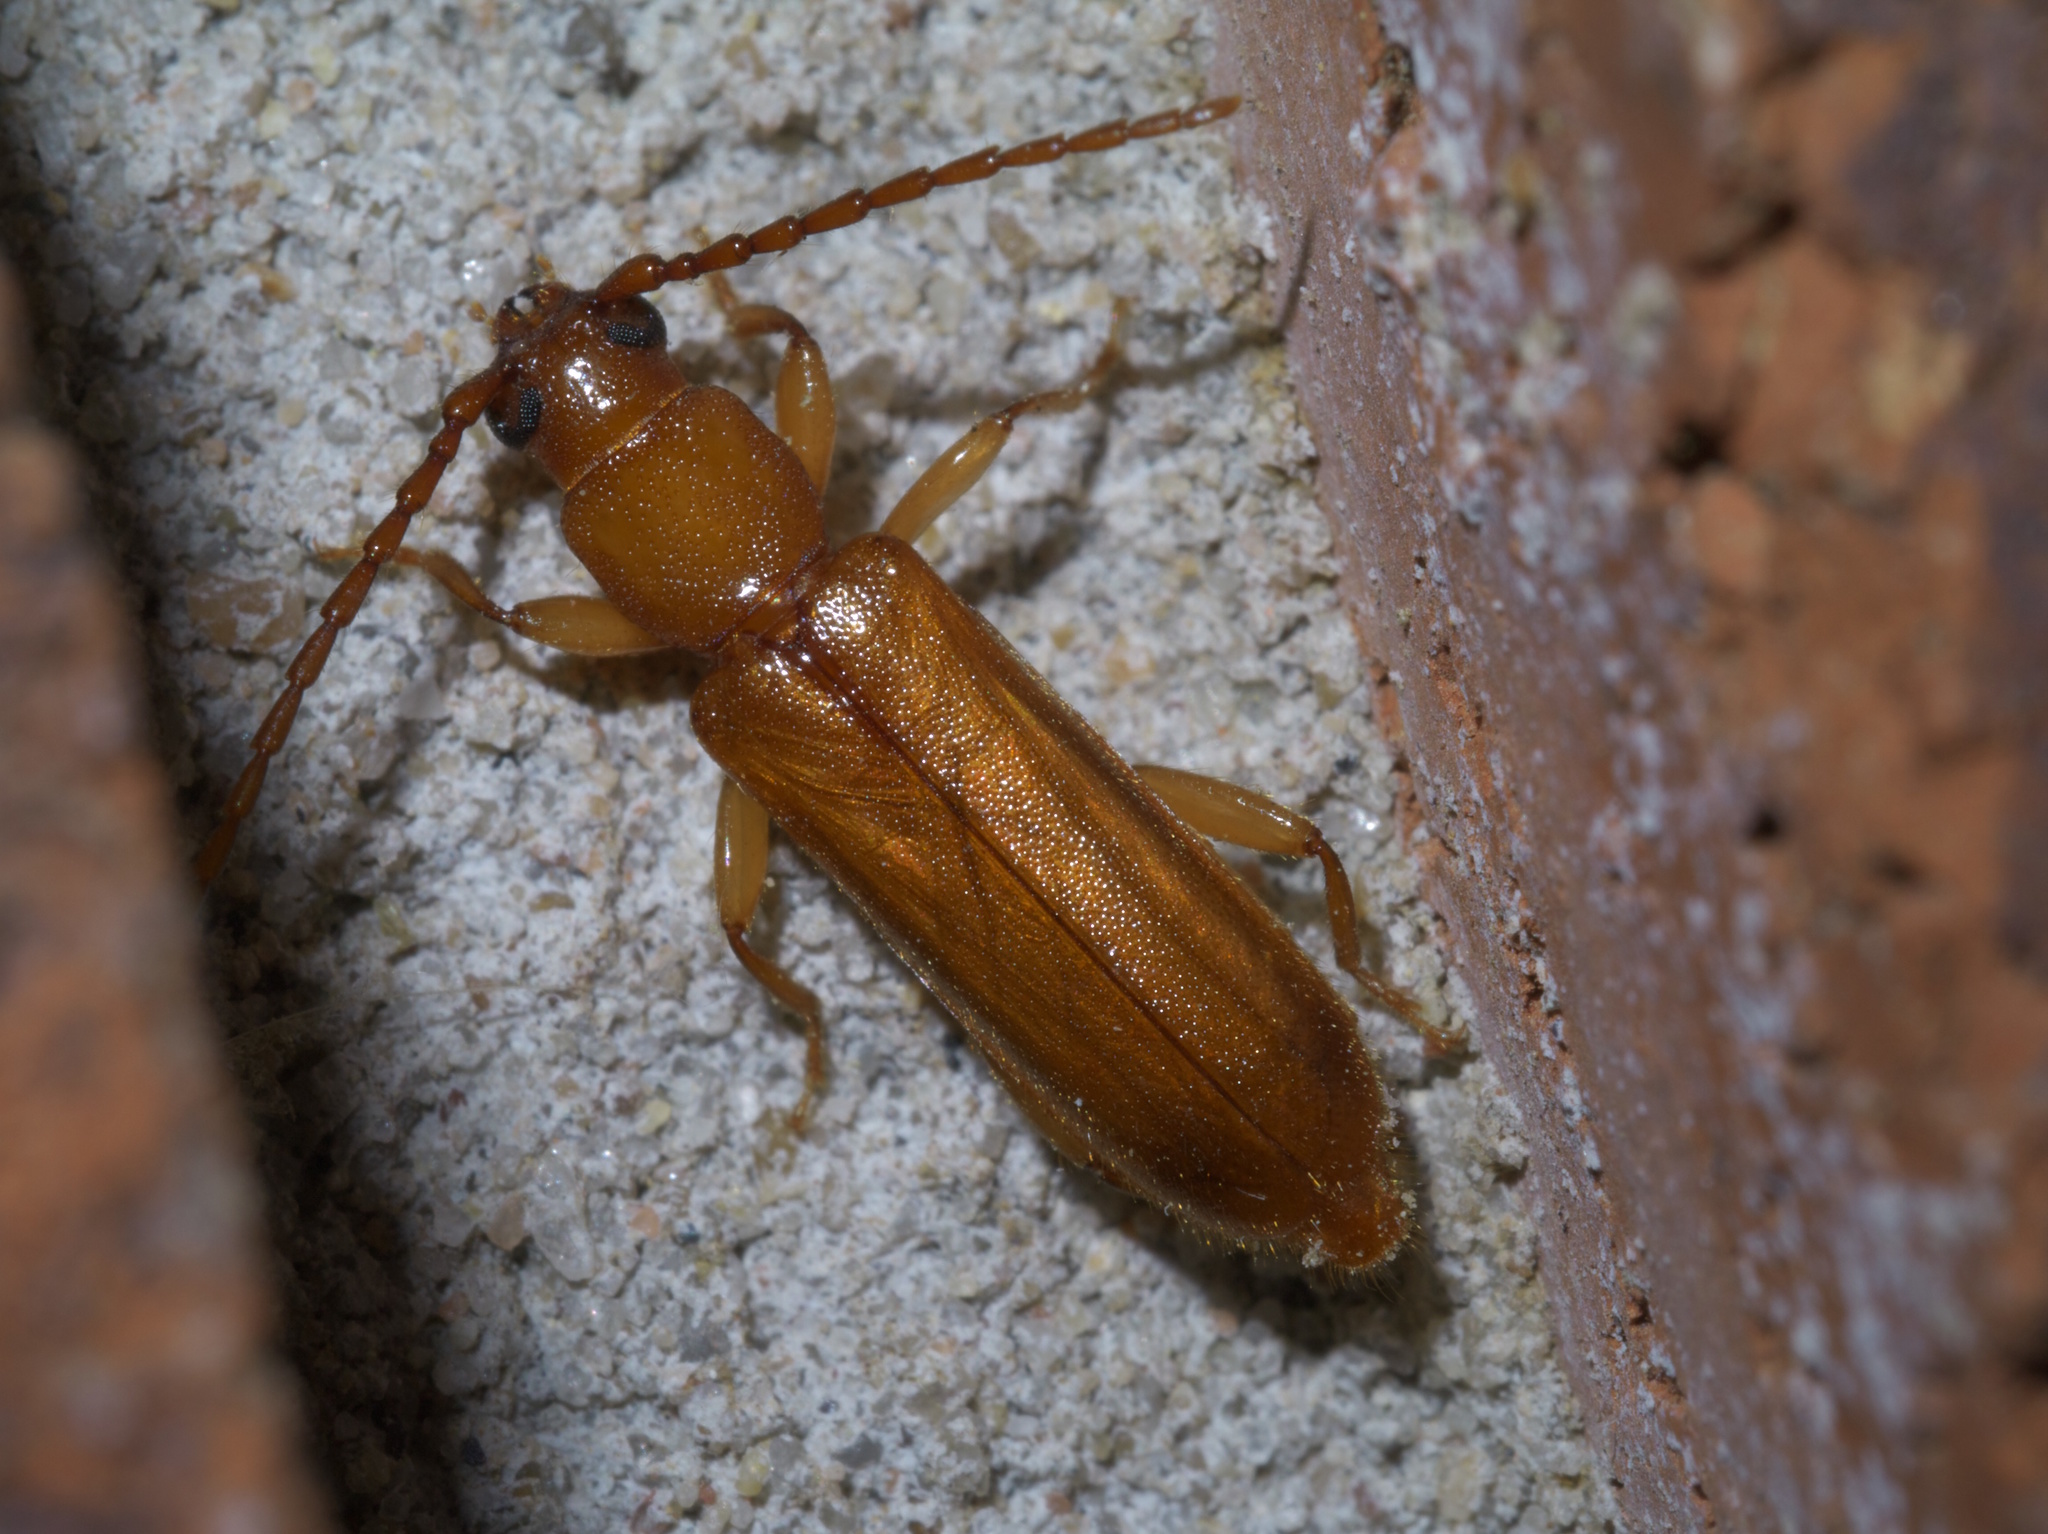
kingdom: Animalia
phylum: Arthropoda
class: Insecta
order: Coleoptera
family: Cerambycidae
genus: Smodicum
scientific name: Smodicum cucujiforme
